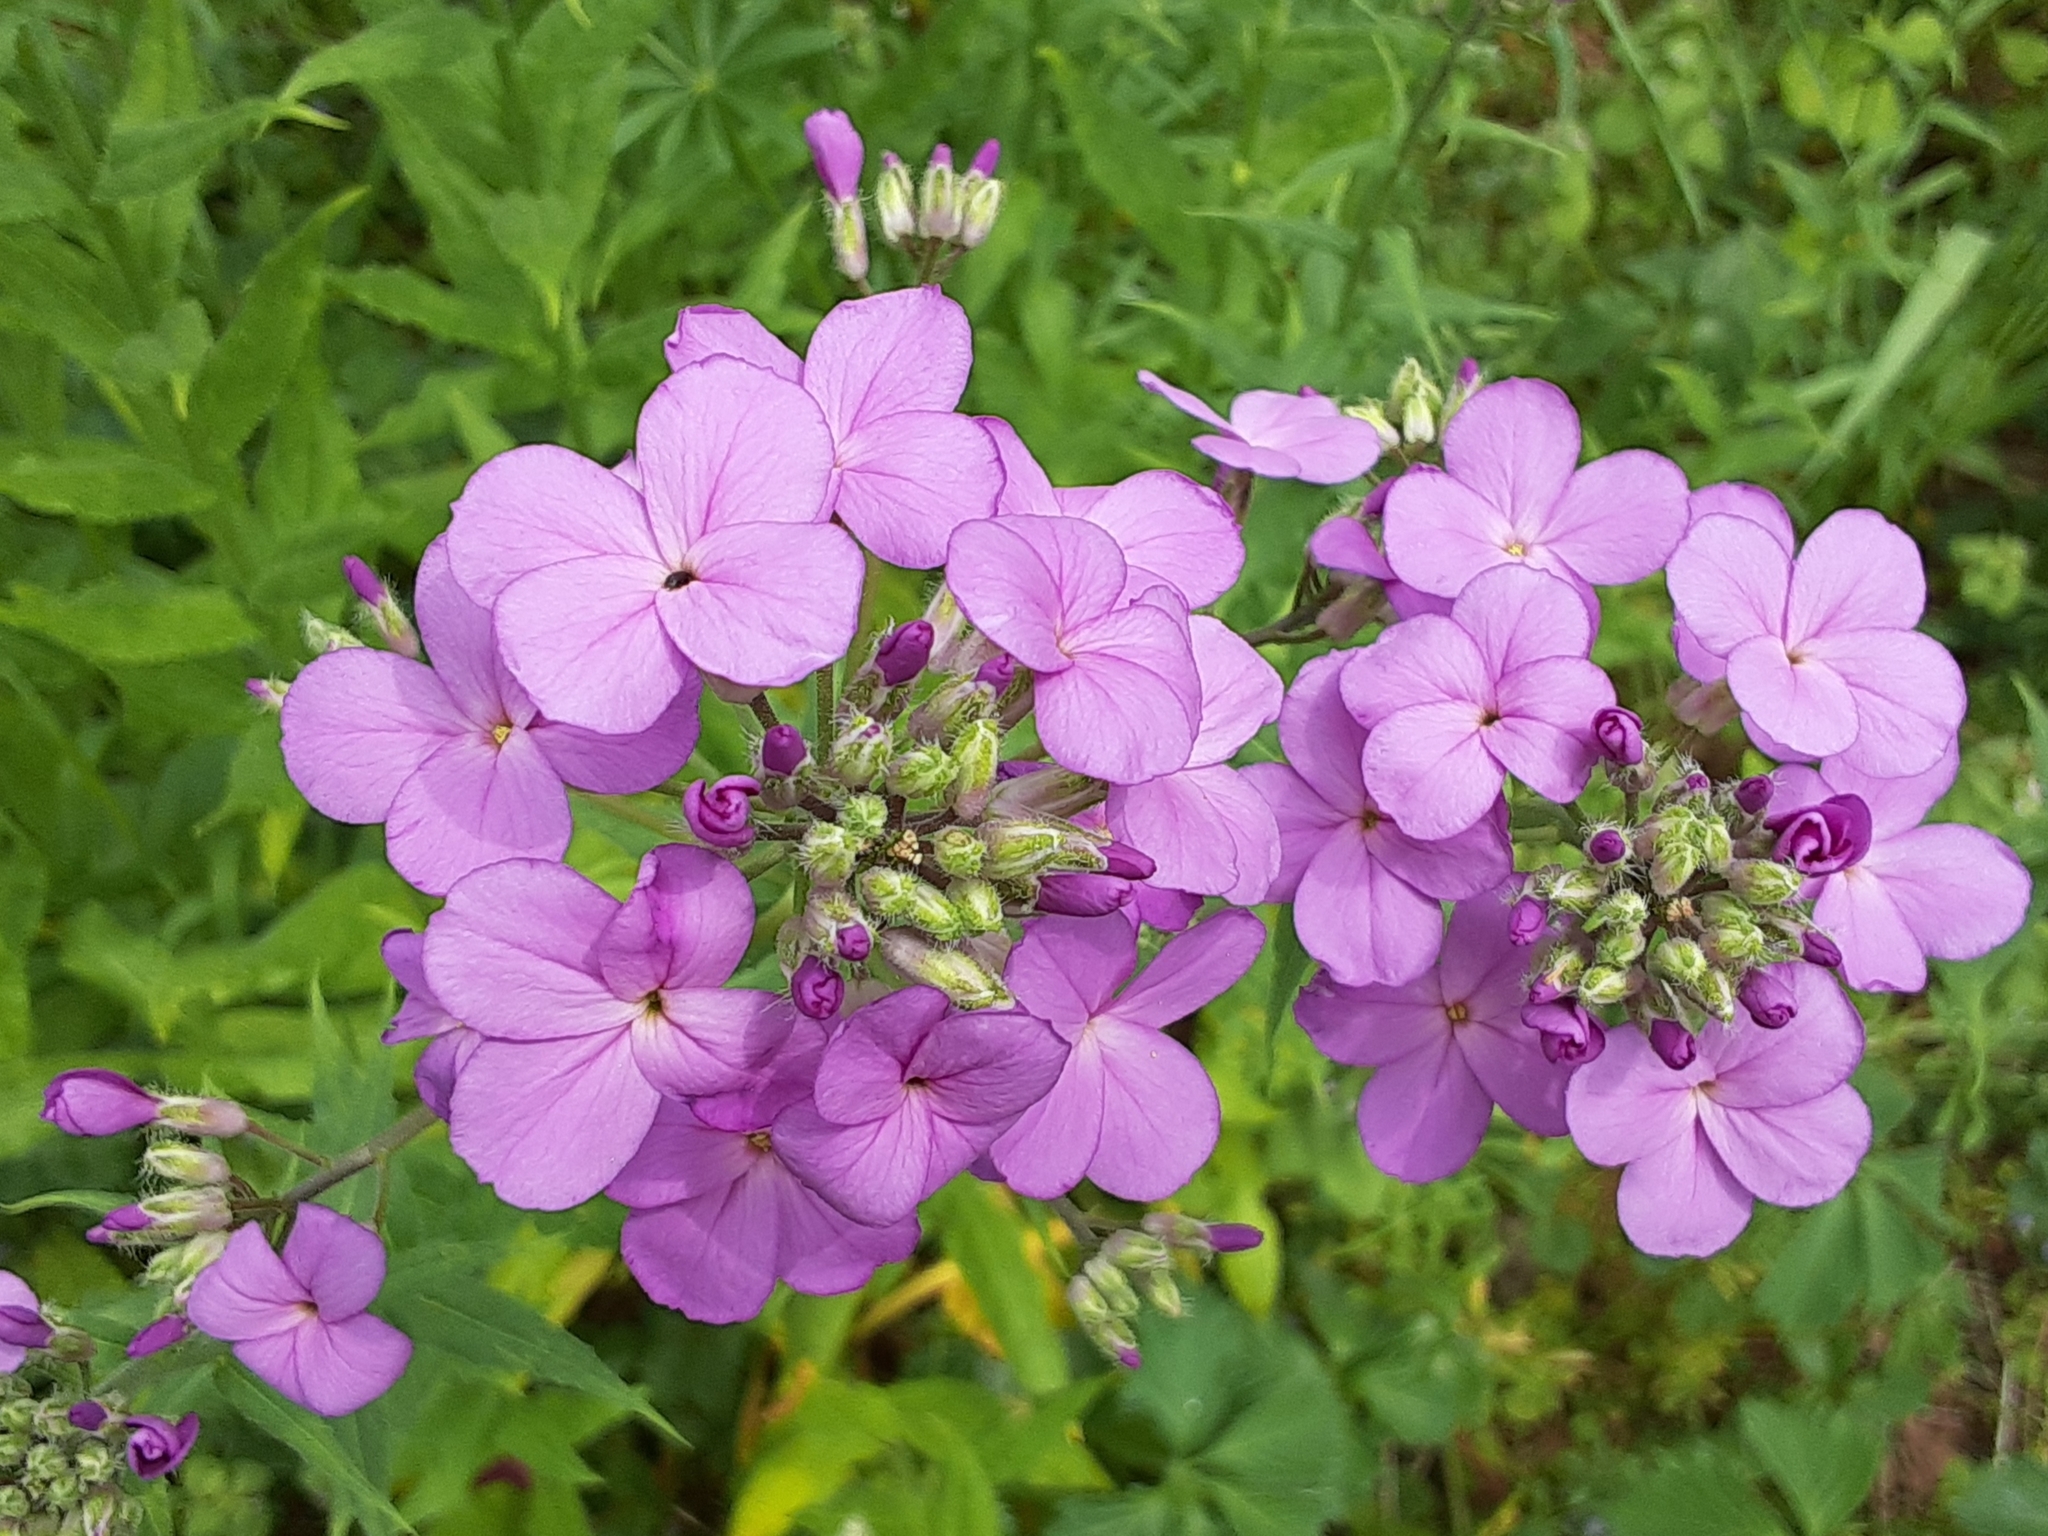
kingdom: Plantae
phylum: Tracheophyta
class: Magnoliopsida
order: Brassicales
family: Brassicaceae
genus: Hesperis
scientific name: Hesperis matronalis
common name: Dame's-violet
